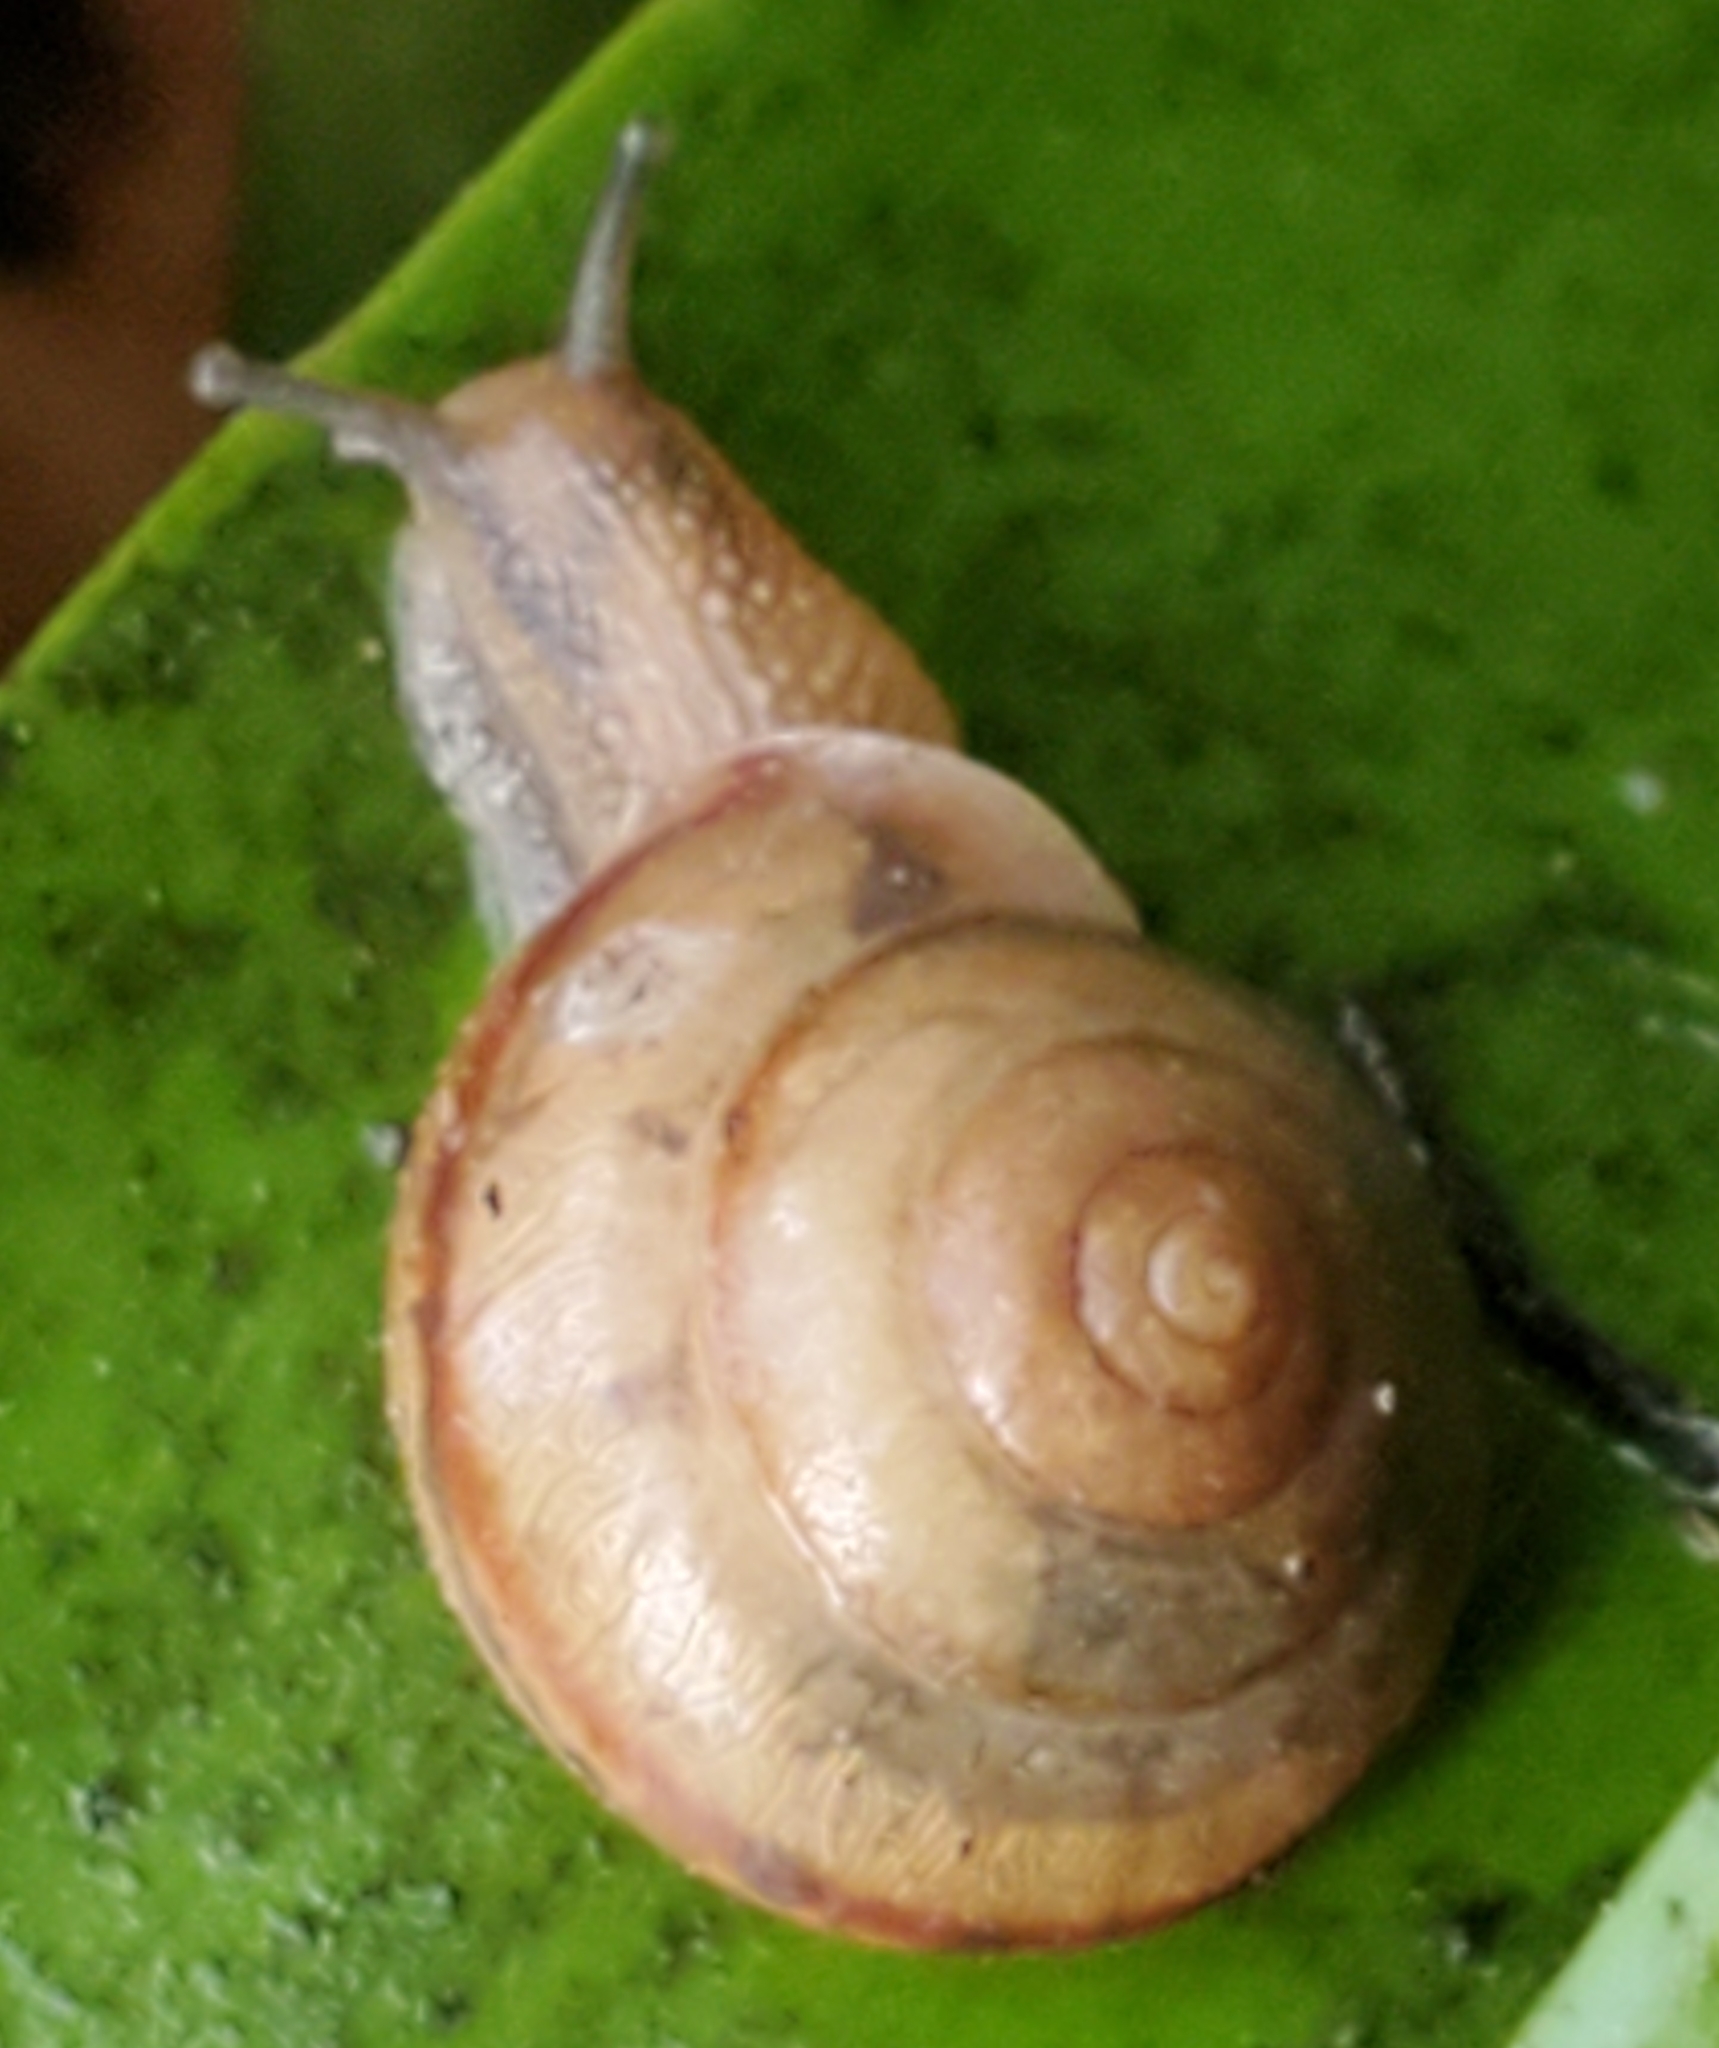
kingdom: Animalia
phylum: Mollusca
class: Gastropoda
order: Stylommatophora
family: Camaenidae
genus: Bradybaena
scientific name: Bradybaena similaris
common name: Asian trampsnail
